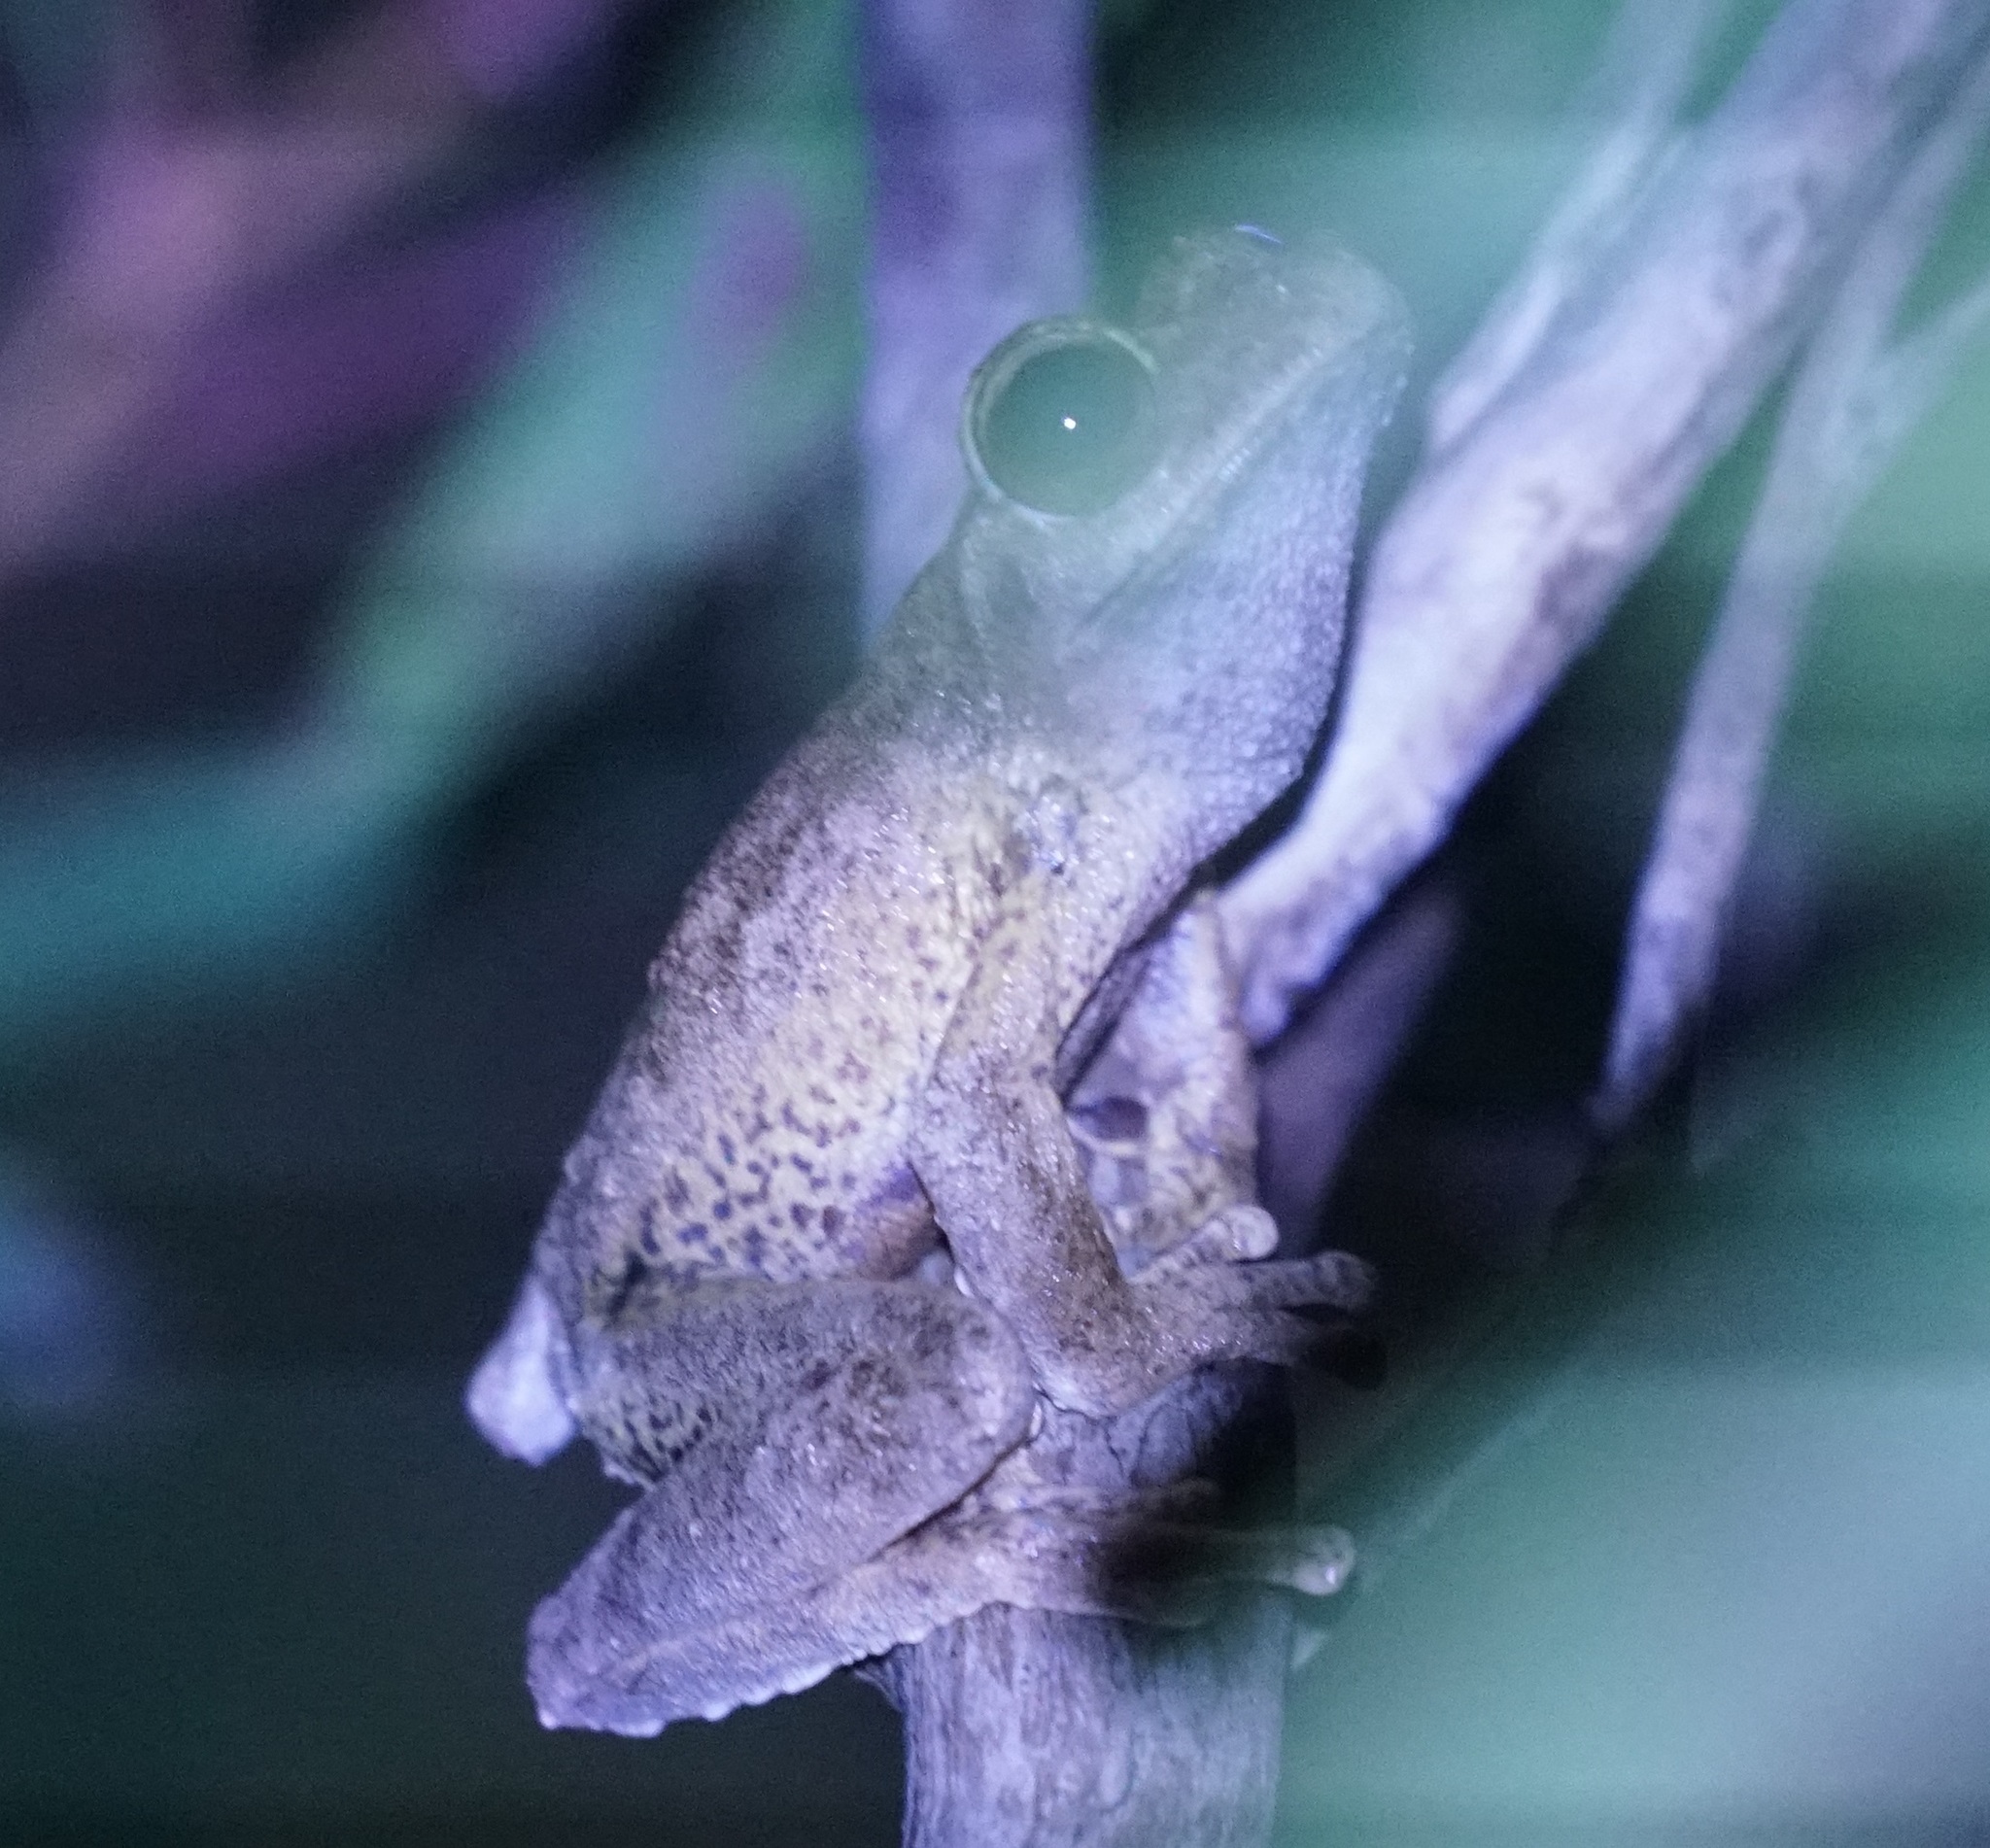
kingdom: Animalia
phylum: Chordata
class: Amphibia
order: Anura
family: Hylidae
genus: Ranoidea
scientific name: Ranoidea
